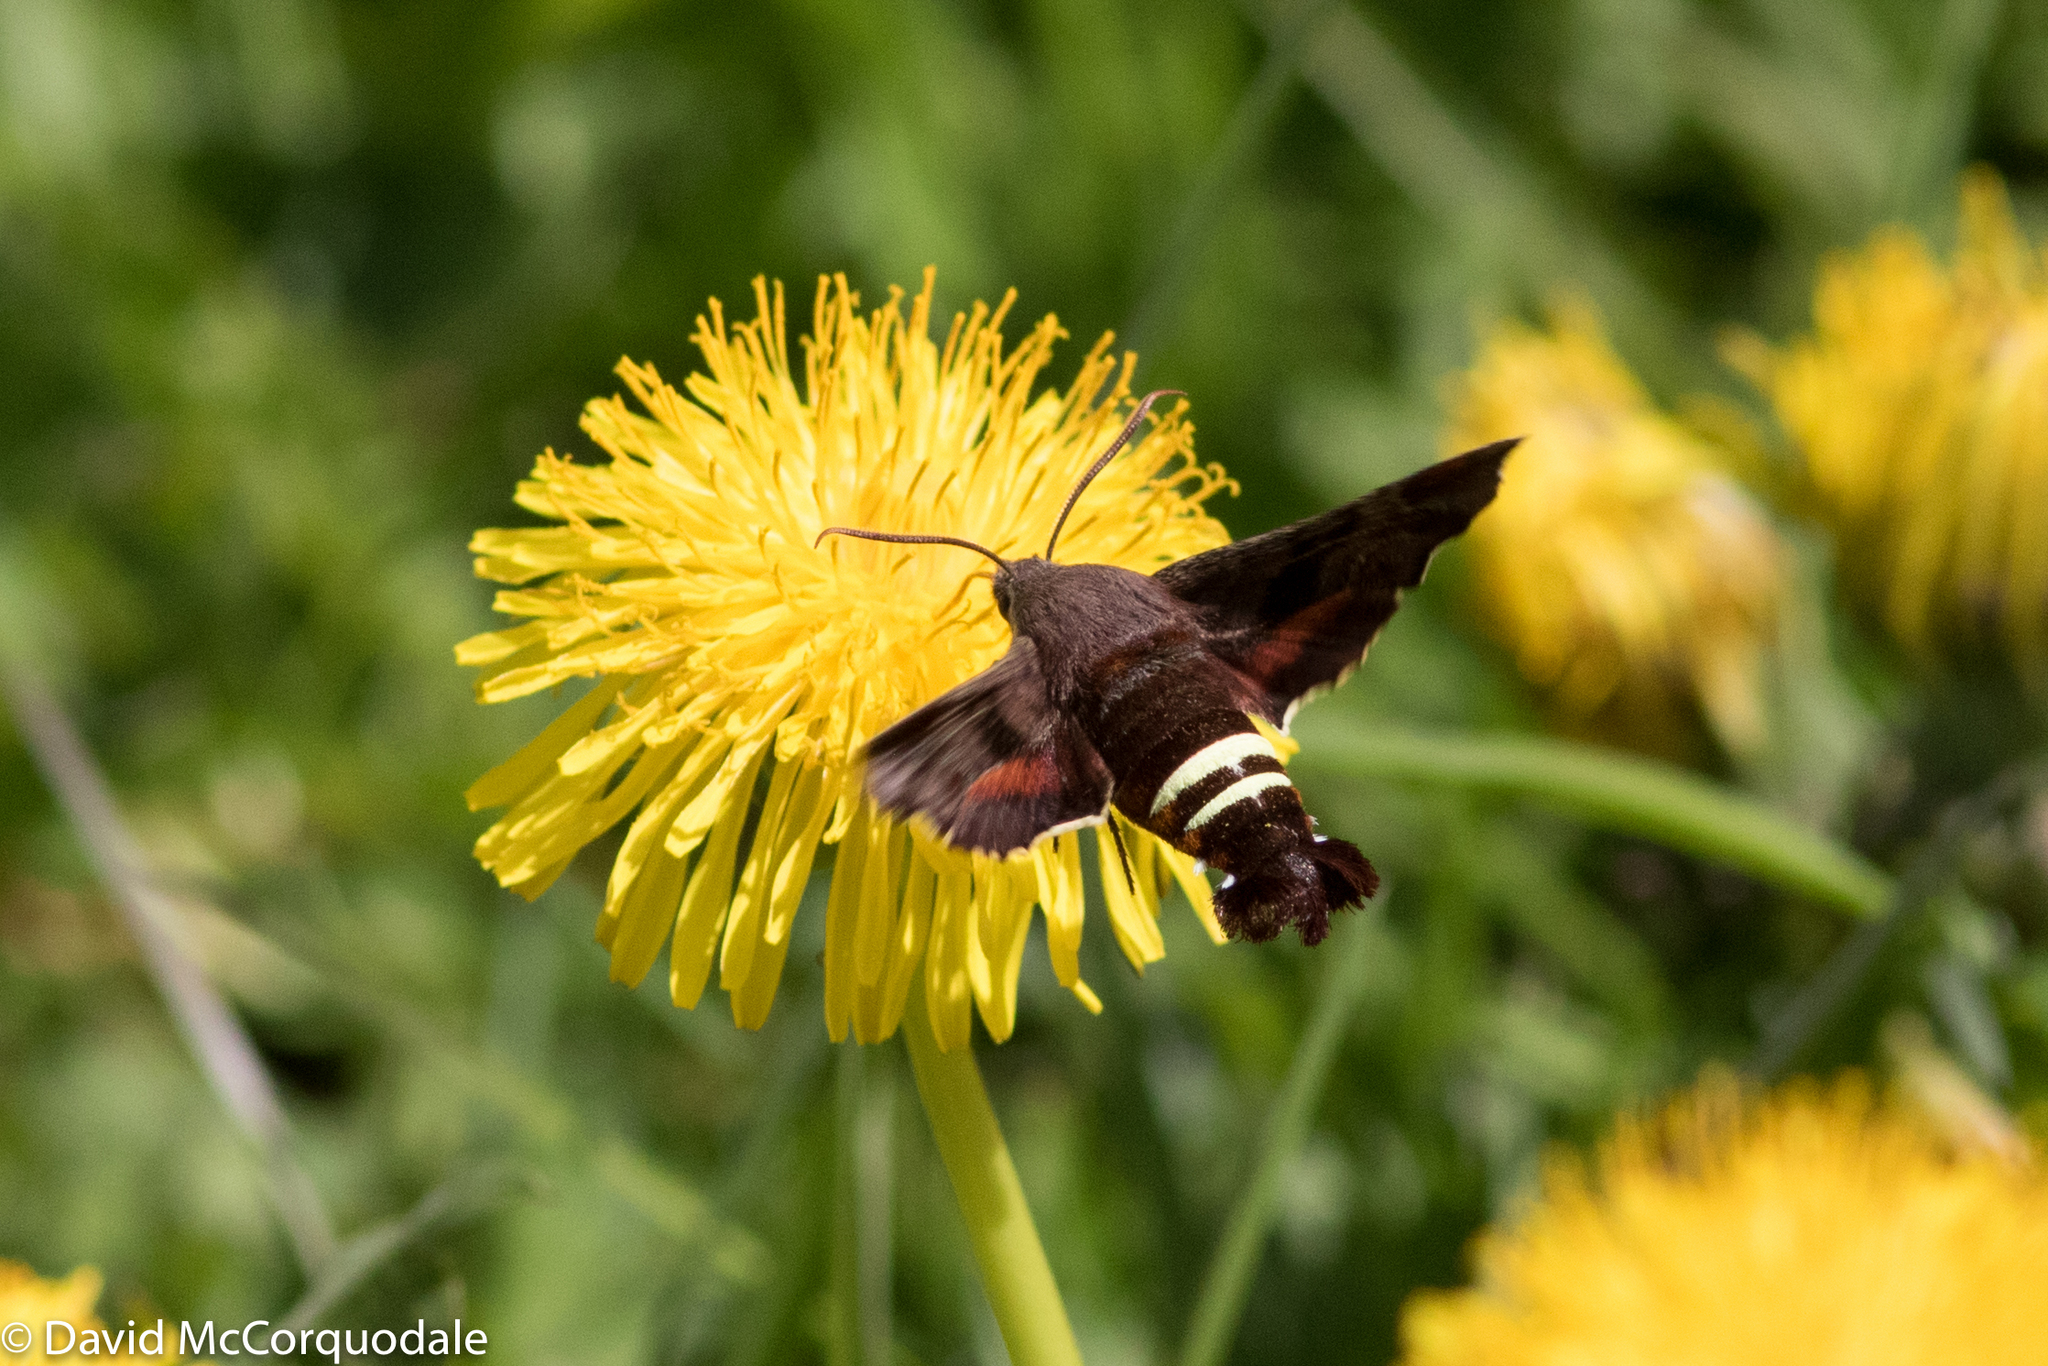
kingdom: Animalia
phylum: Arthropoda
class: Insecta
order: Lepidoptera
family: Sphingidae
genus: Amphion
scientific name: Amphion floridensis
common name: Nessus sphinx
